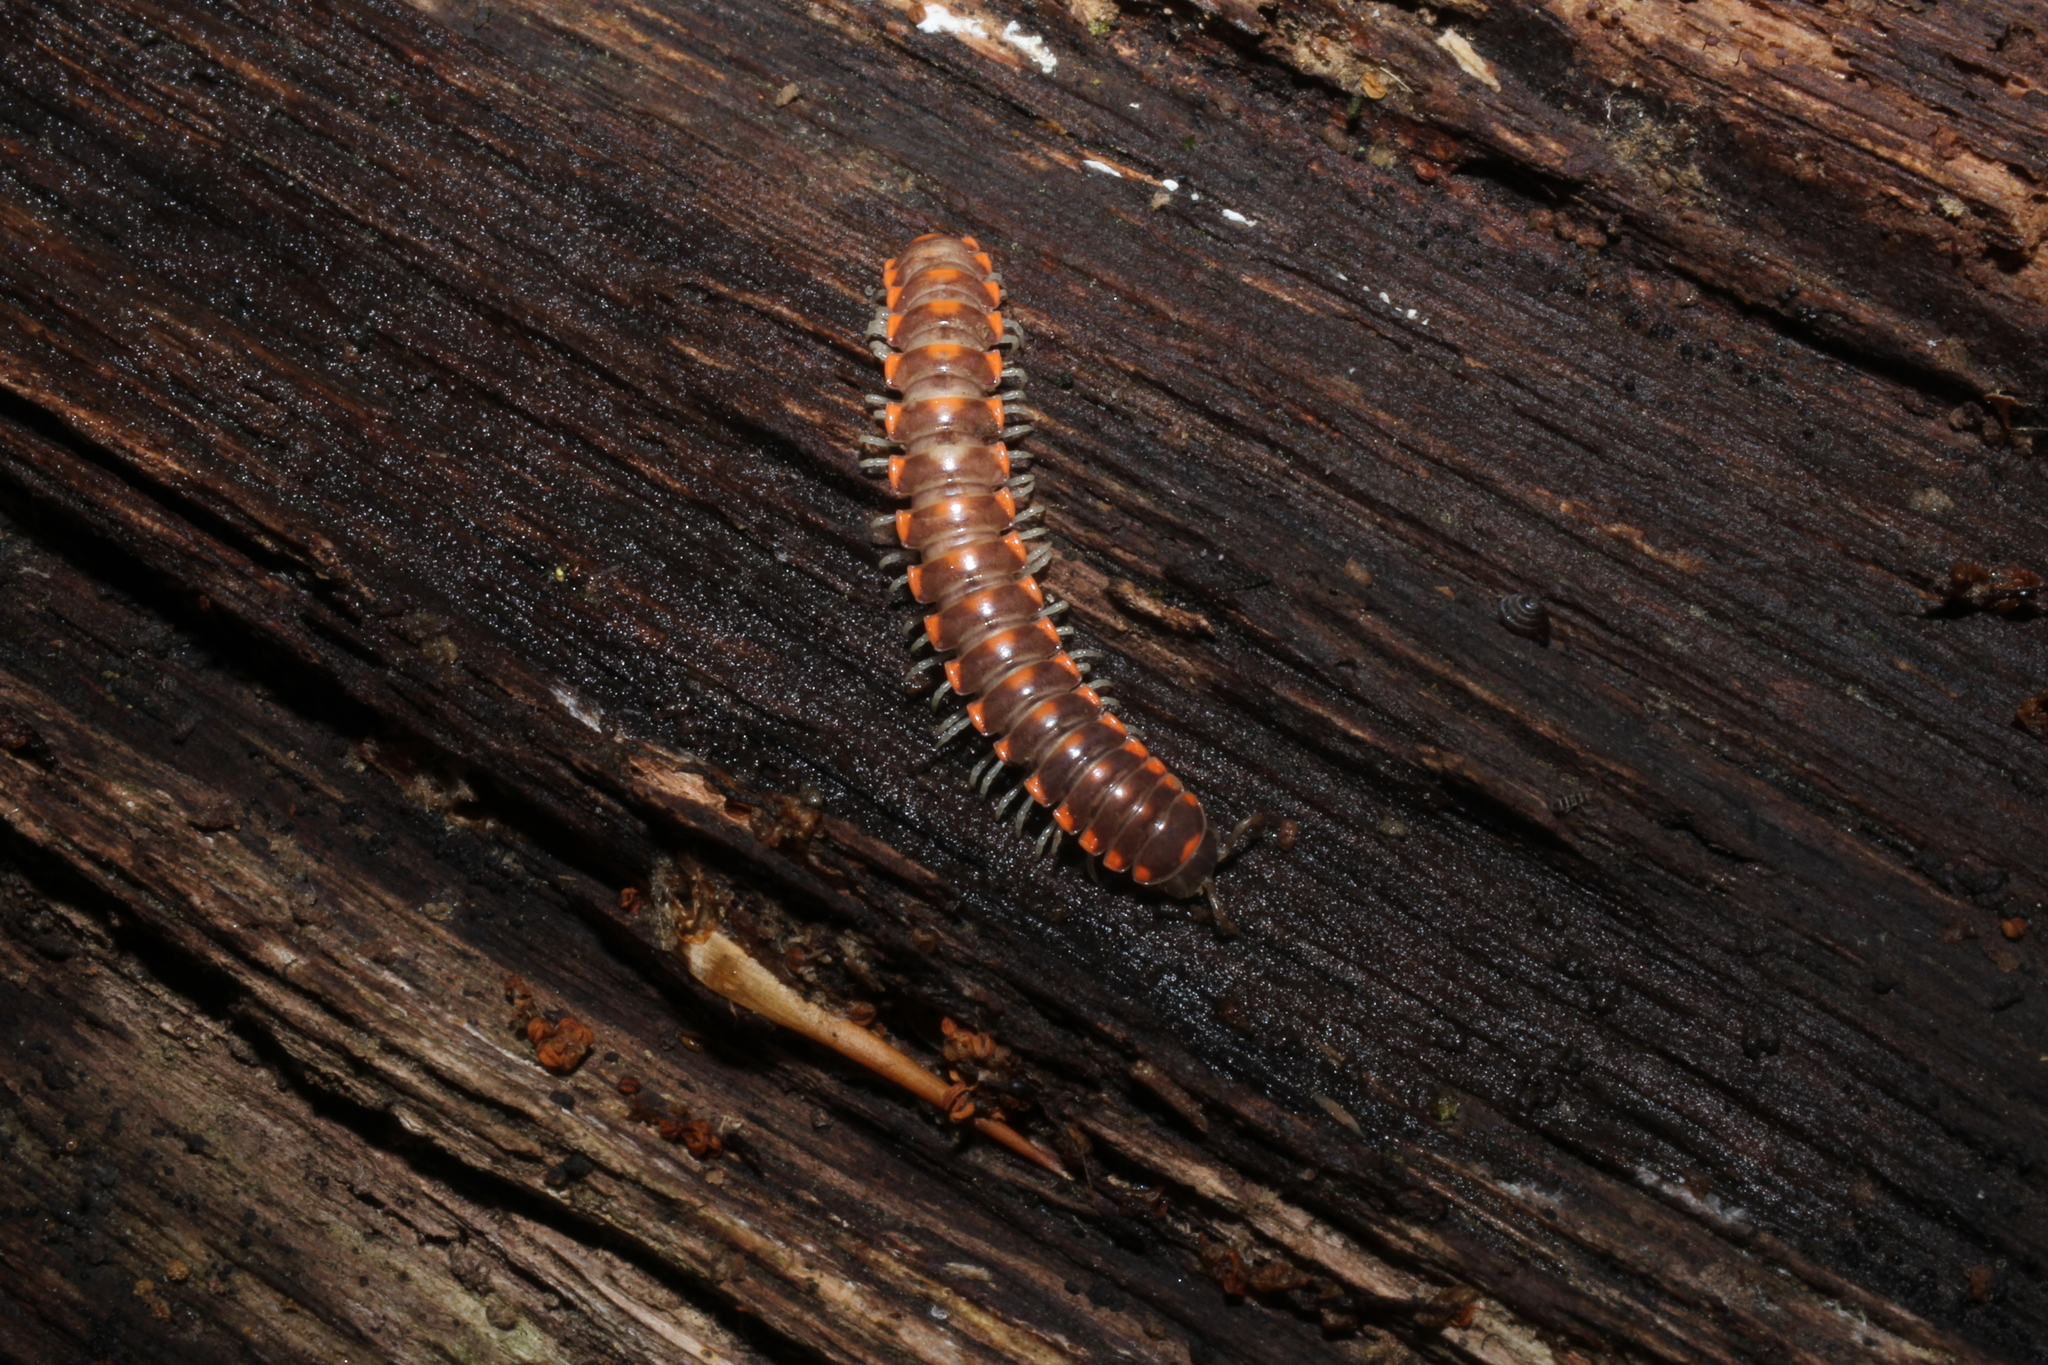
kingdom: Animalia
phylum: Arthropoda
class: Diplopoda
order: Polydesmida
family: Xystodesmidae
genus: Euryurus
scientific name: Euryurus leachii
